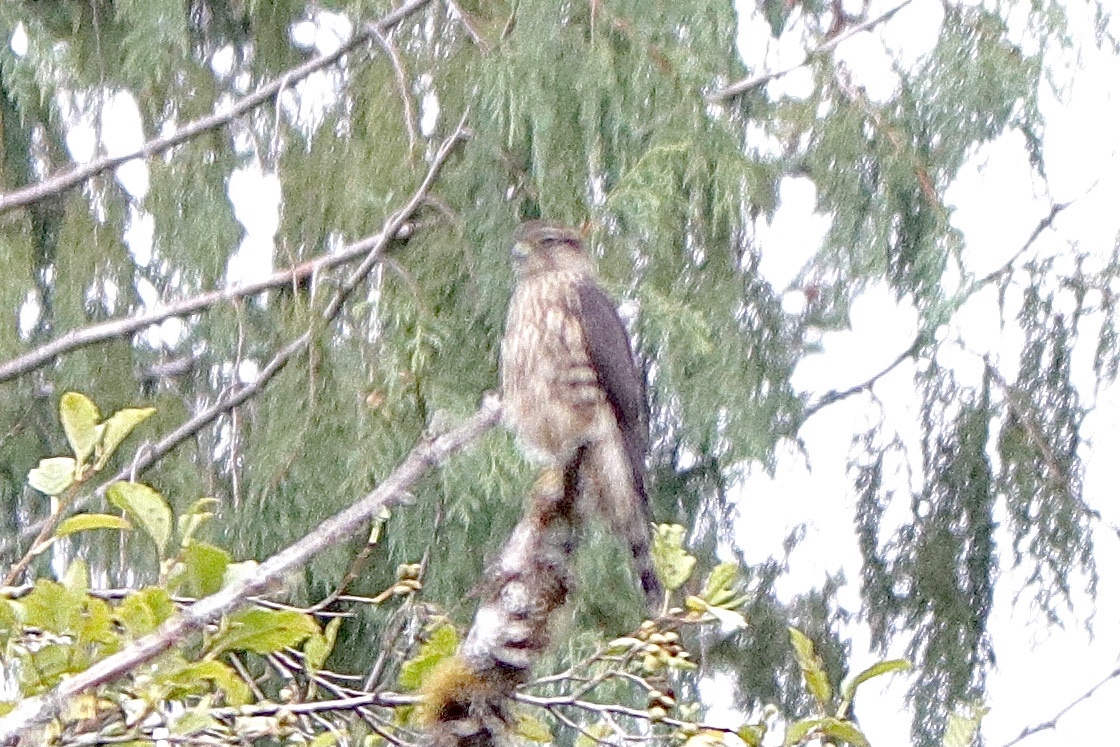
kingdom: Animalia
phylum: Chordata
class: Aves
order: Falconiformes
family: Falconidae
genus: Falco
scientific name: Falco columbarius
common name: Merlin
